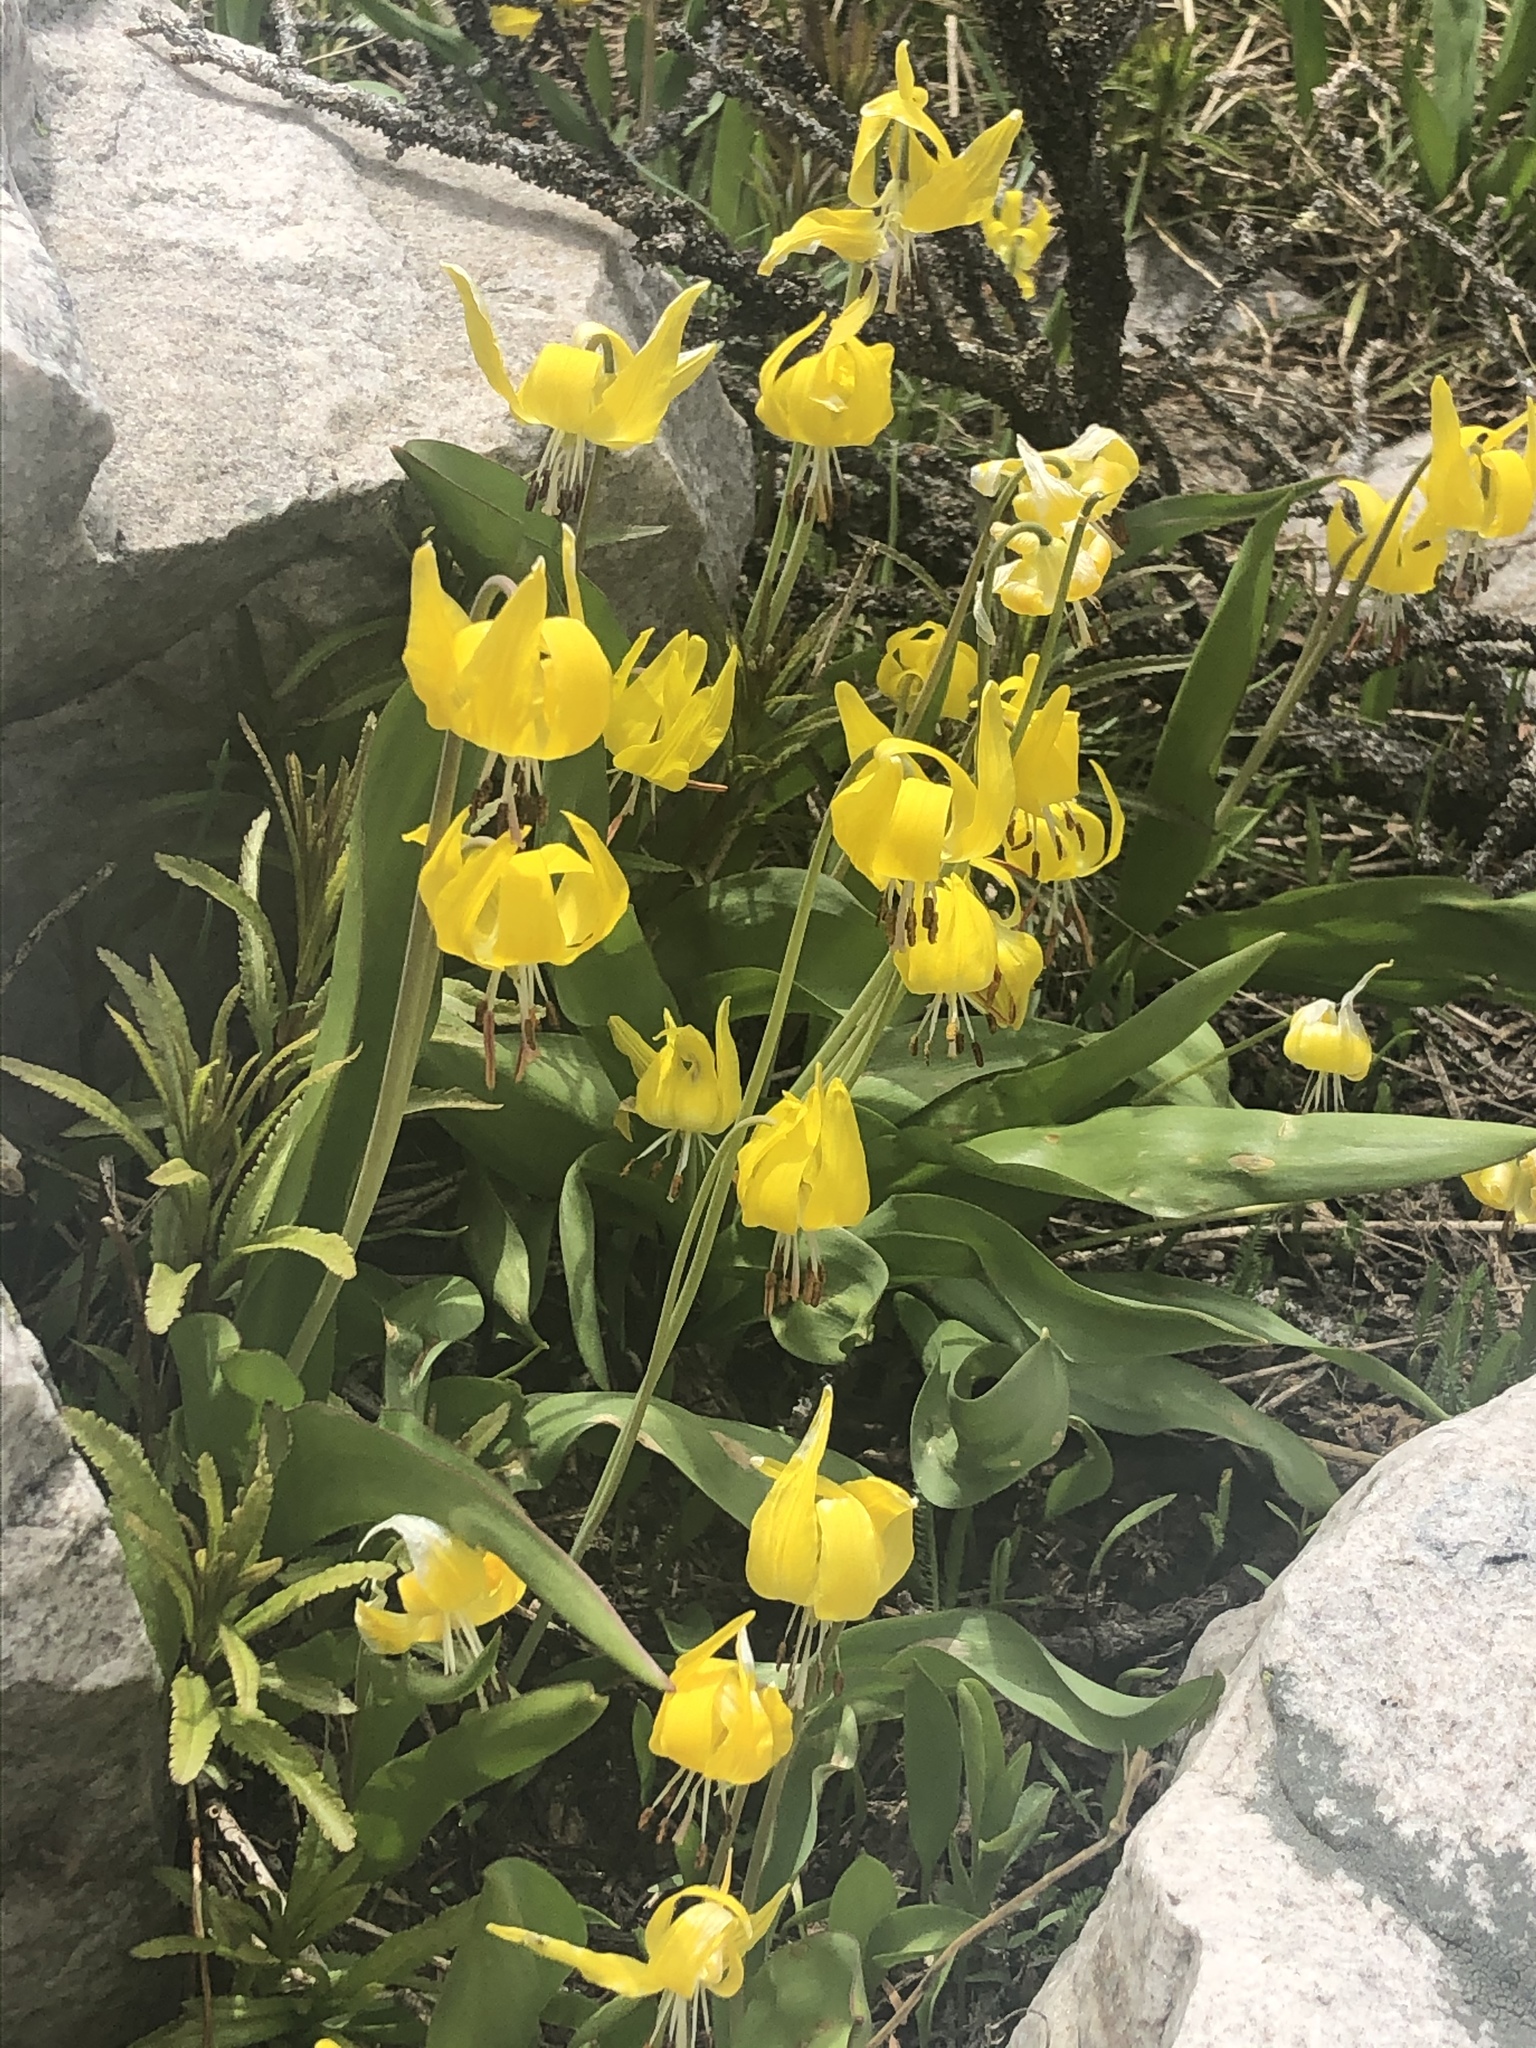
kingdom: Plantae
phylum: Tracheophyta
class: Liliopsida
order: Liliales
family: Liliaceae
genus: Erythronium
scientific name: Erythronium grandiflorum
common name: Avalanche-lily
